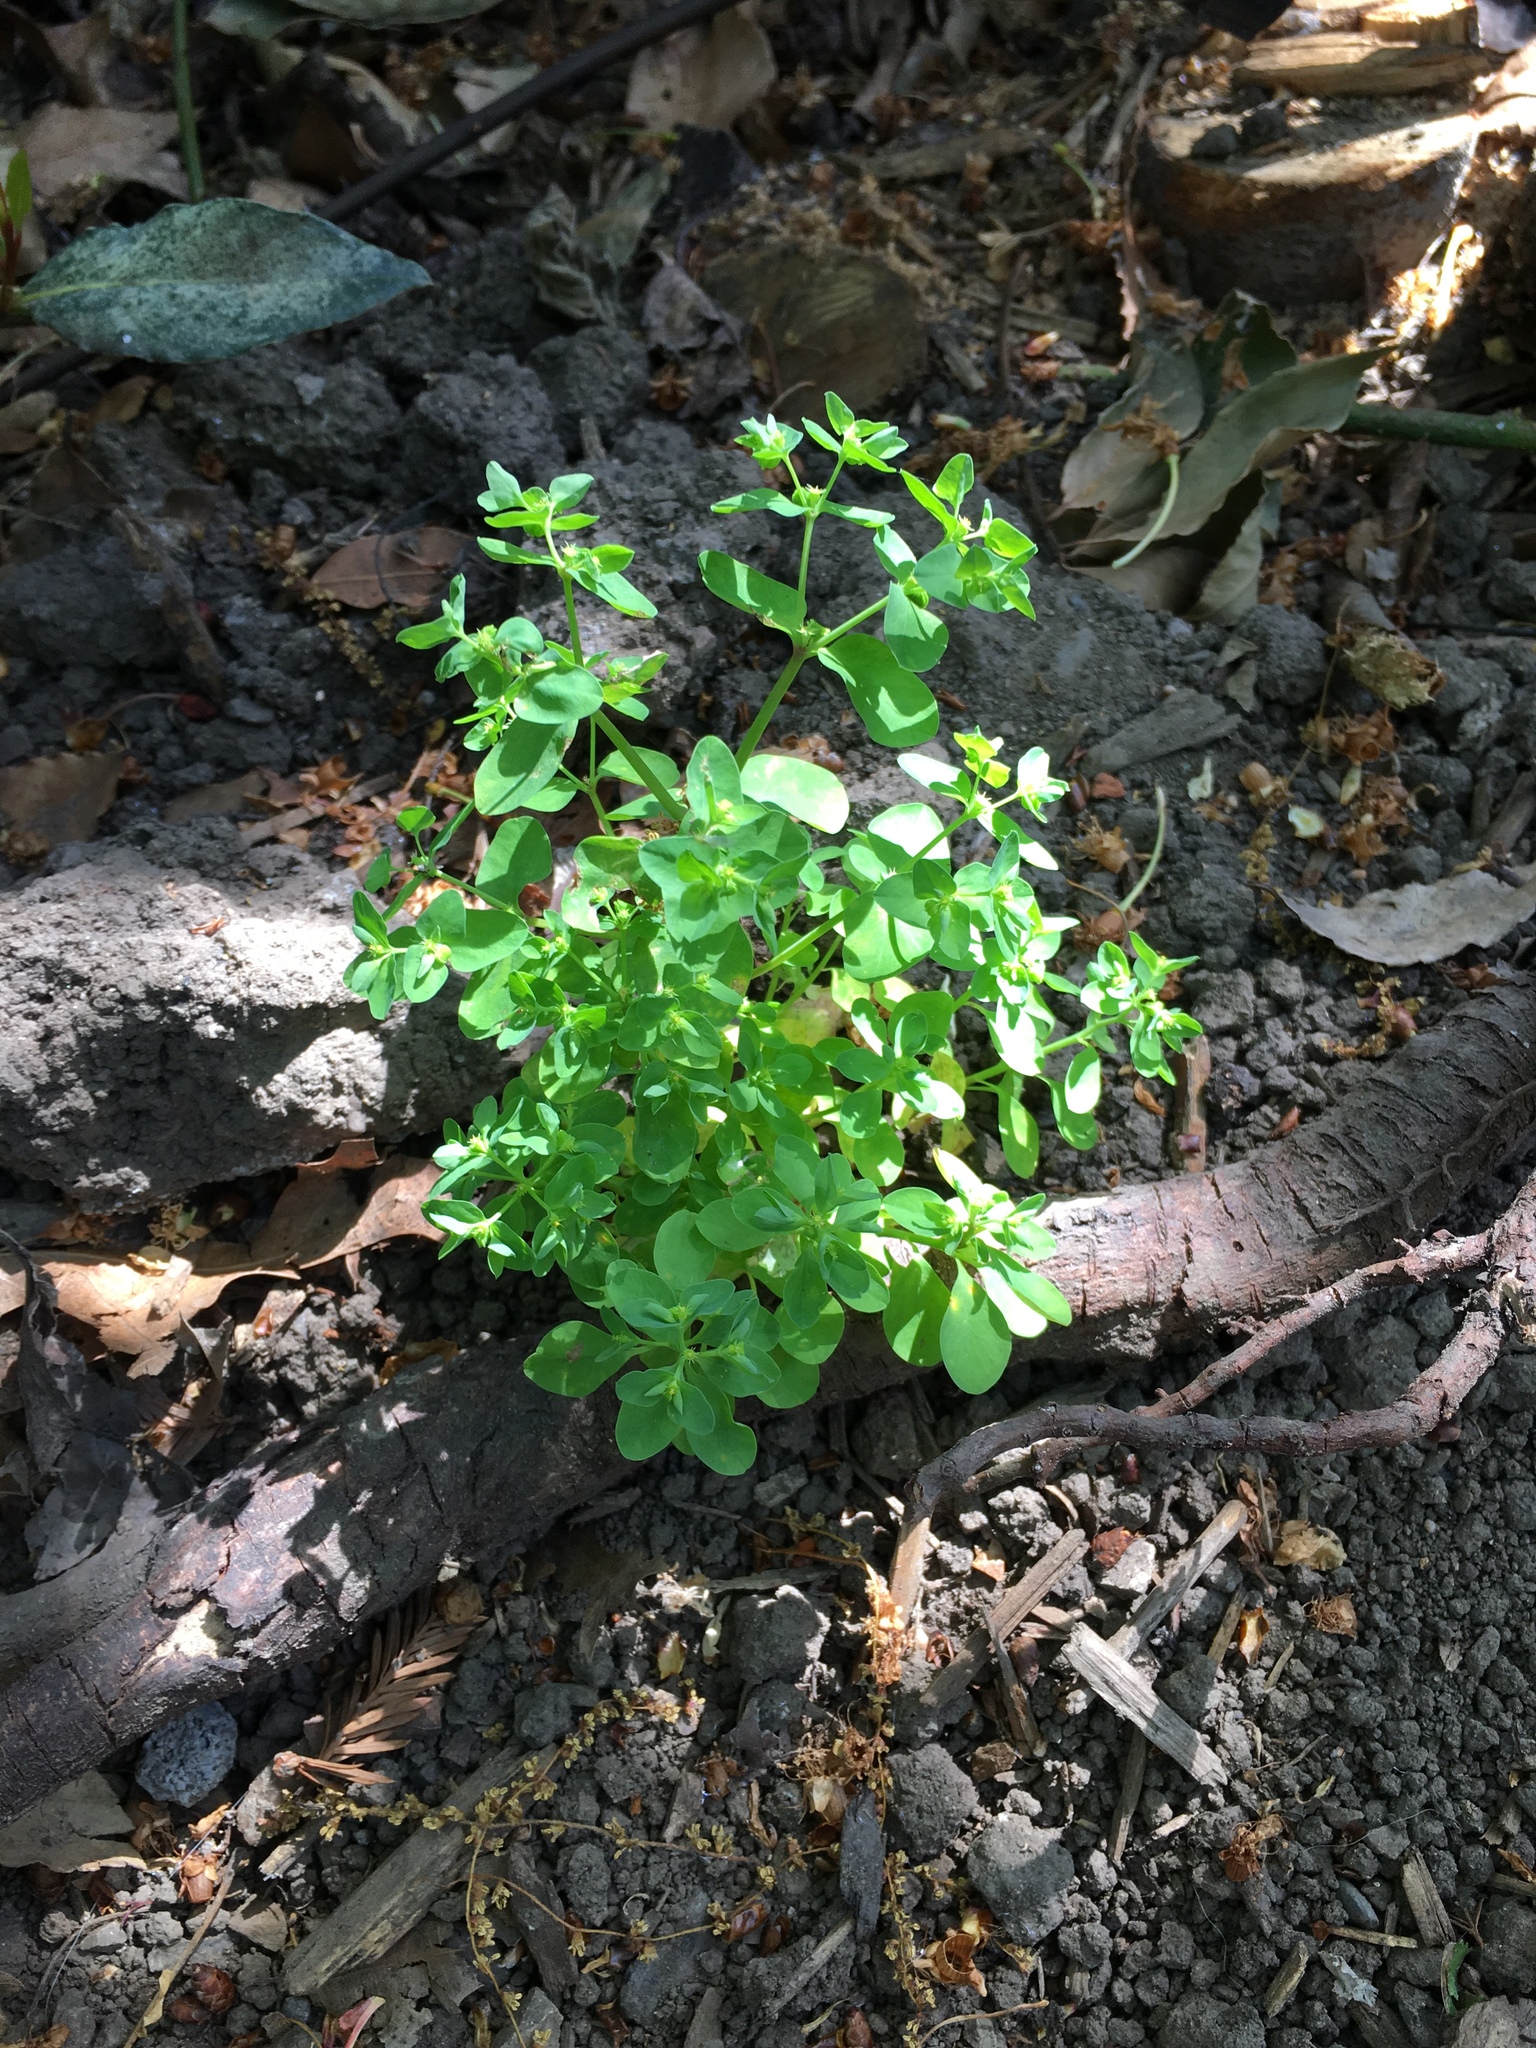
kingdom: Plantae
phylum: Tracheophyta
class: Magnoliopsida
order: Malpighiales
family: Euphorbiaceae
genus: Euphorbia
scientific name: Euphorbia peplus
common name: Petty spurge
